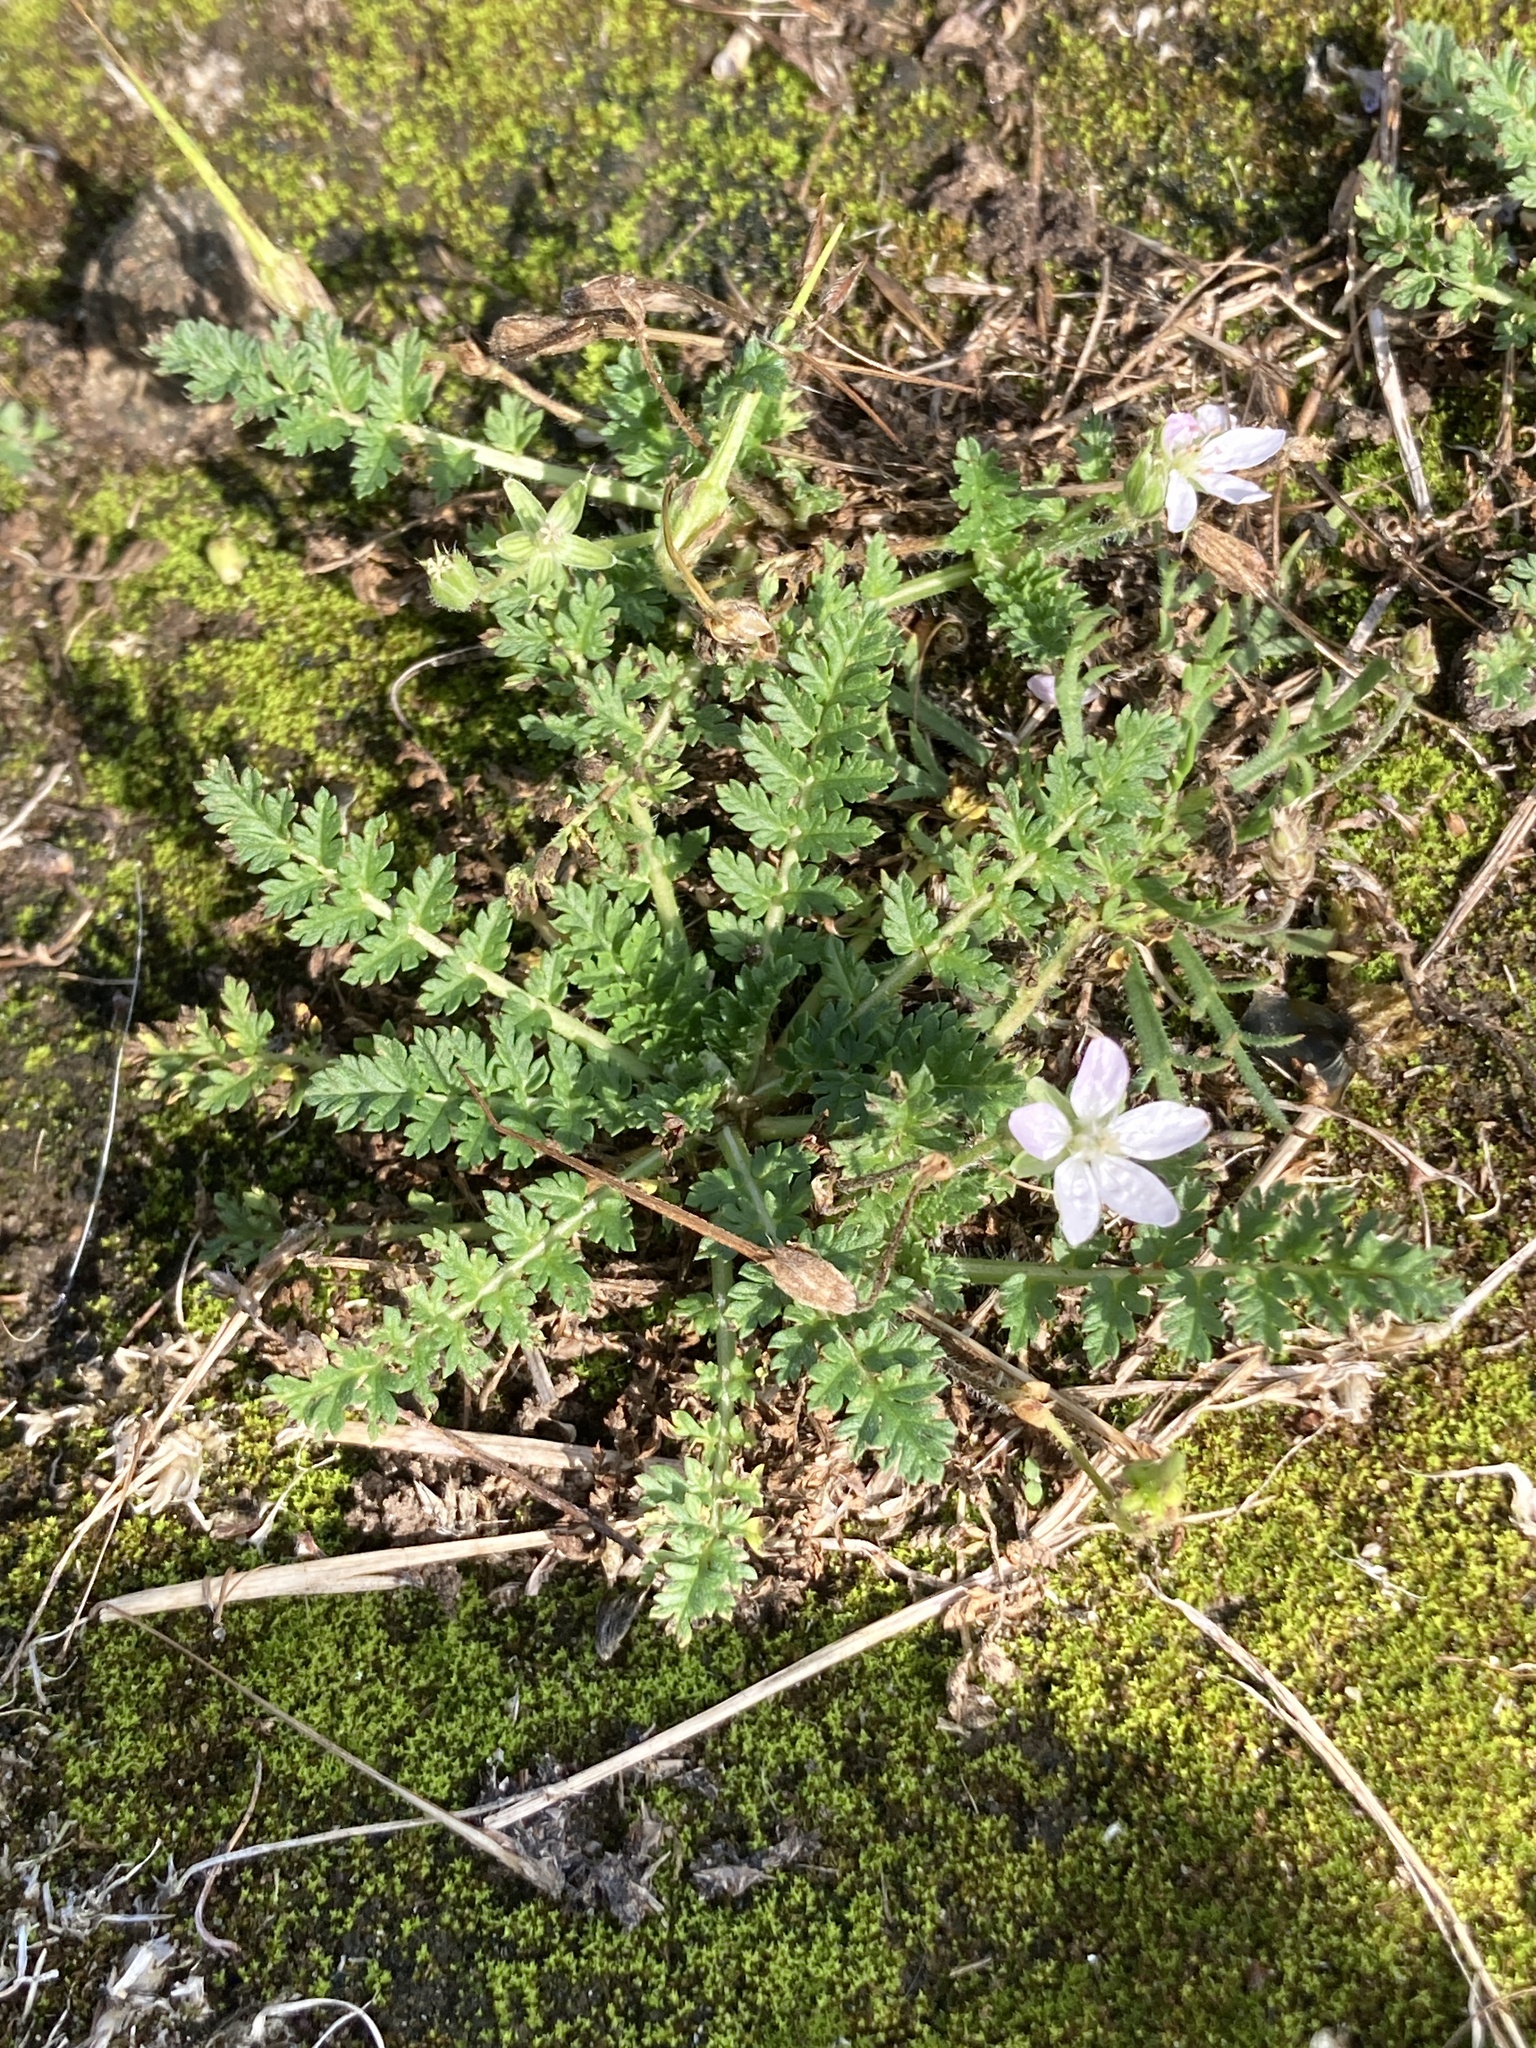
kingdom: Plantae
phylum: Tracheophyta
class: Magnoliopsida
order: Geraniales
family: Geraniaceae
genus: Erodium
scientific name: Erodium cicutarium
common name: Common stork's-bill
